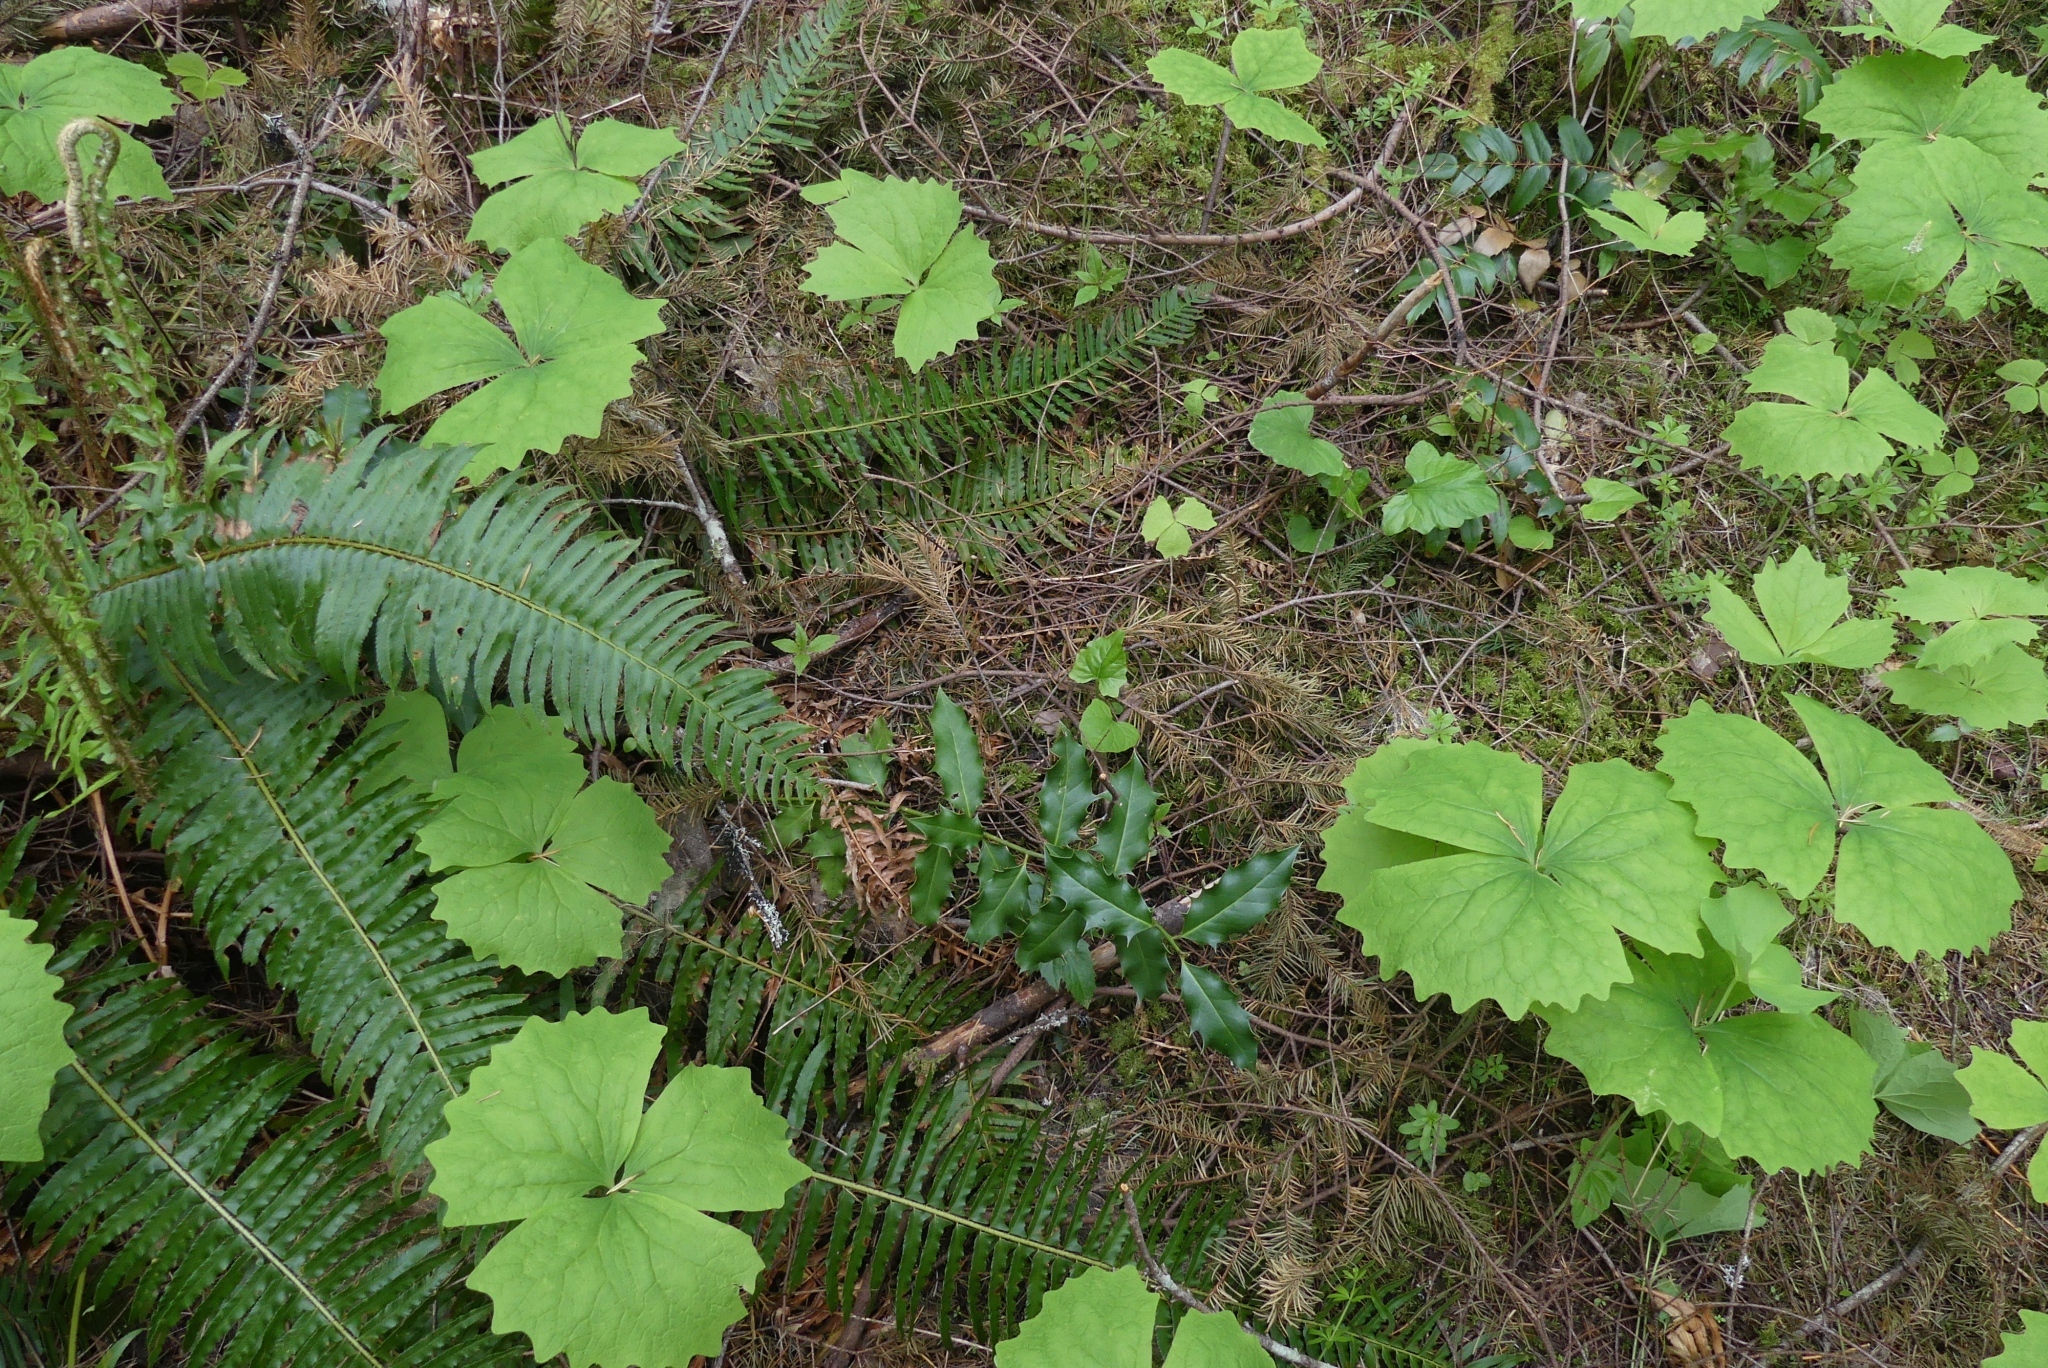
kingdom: Plantae
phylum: Tracheophyta
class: Magnoliopsida
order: Aquifoliales
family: Aquifoliaceae
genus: Ilex
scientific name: Ilex aquifolium
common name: English holly
